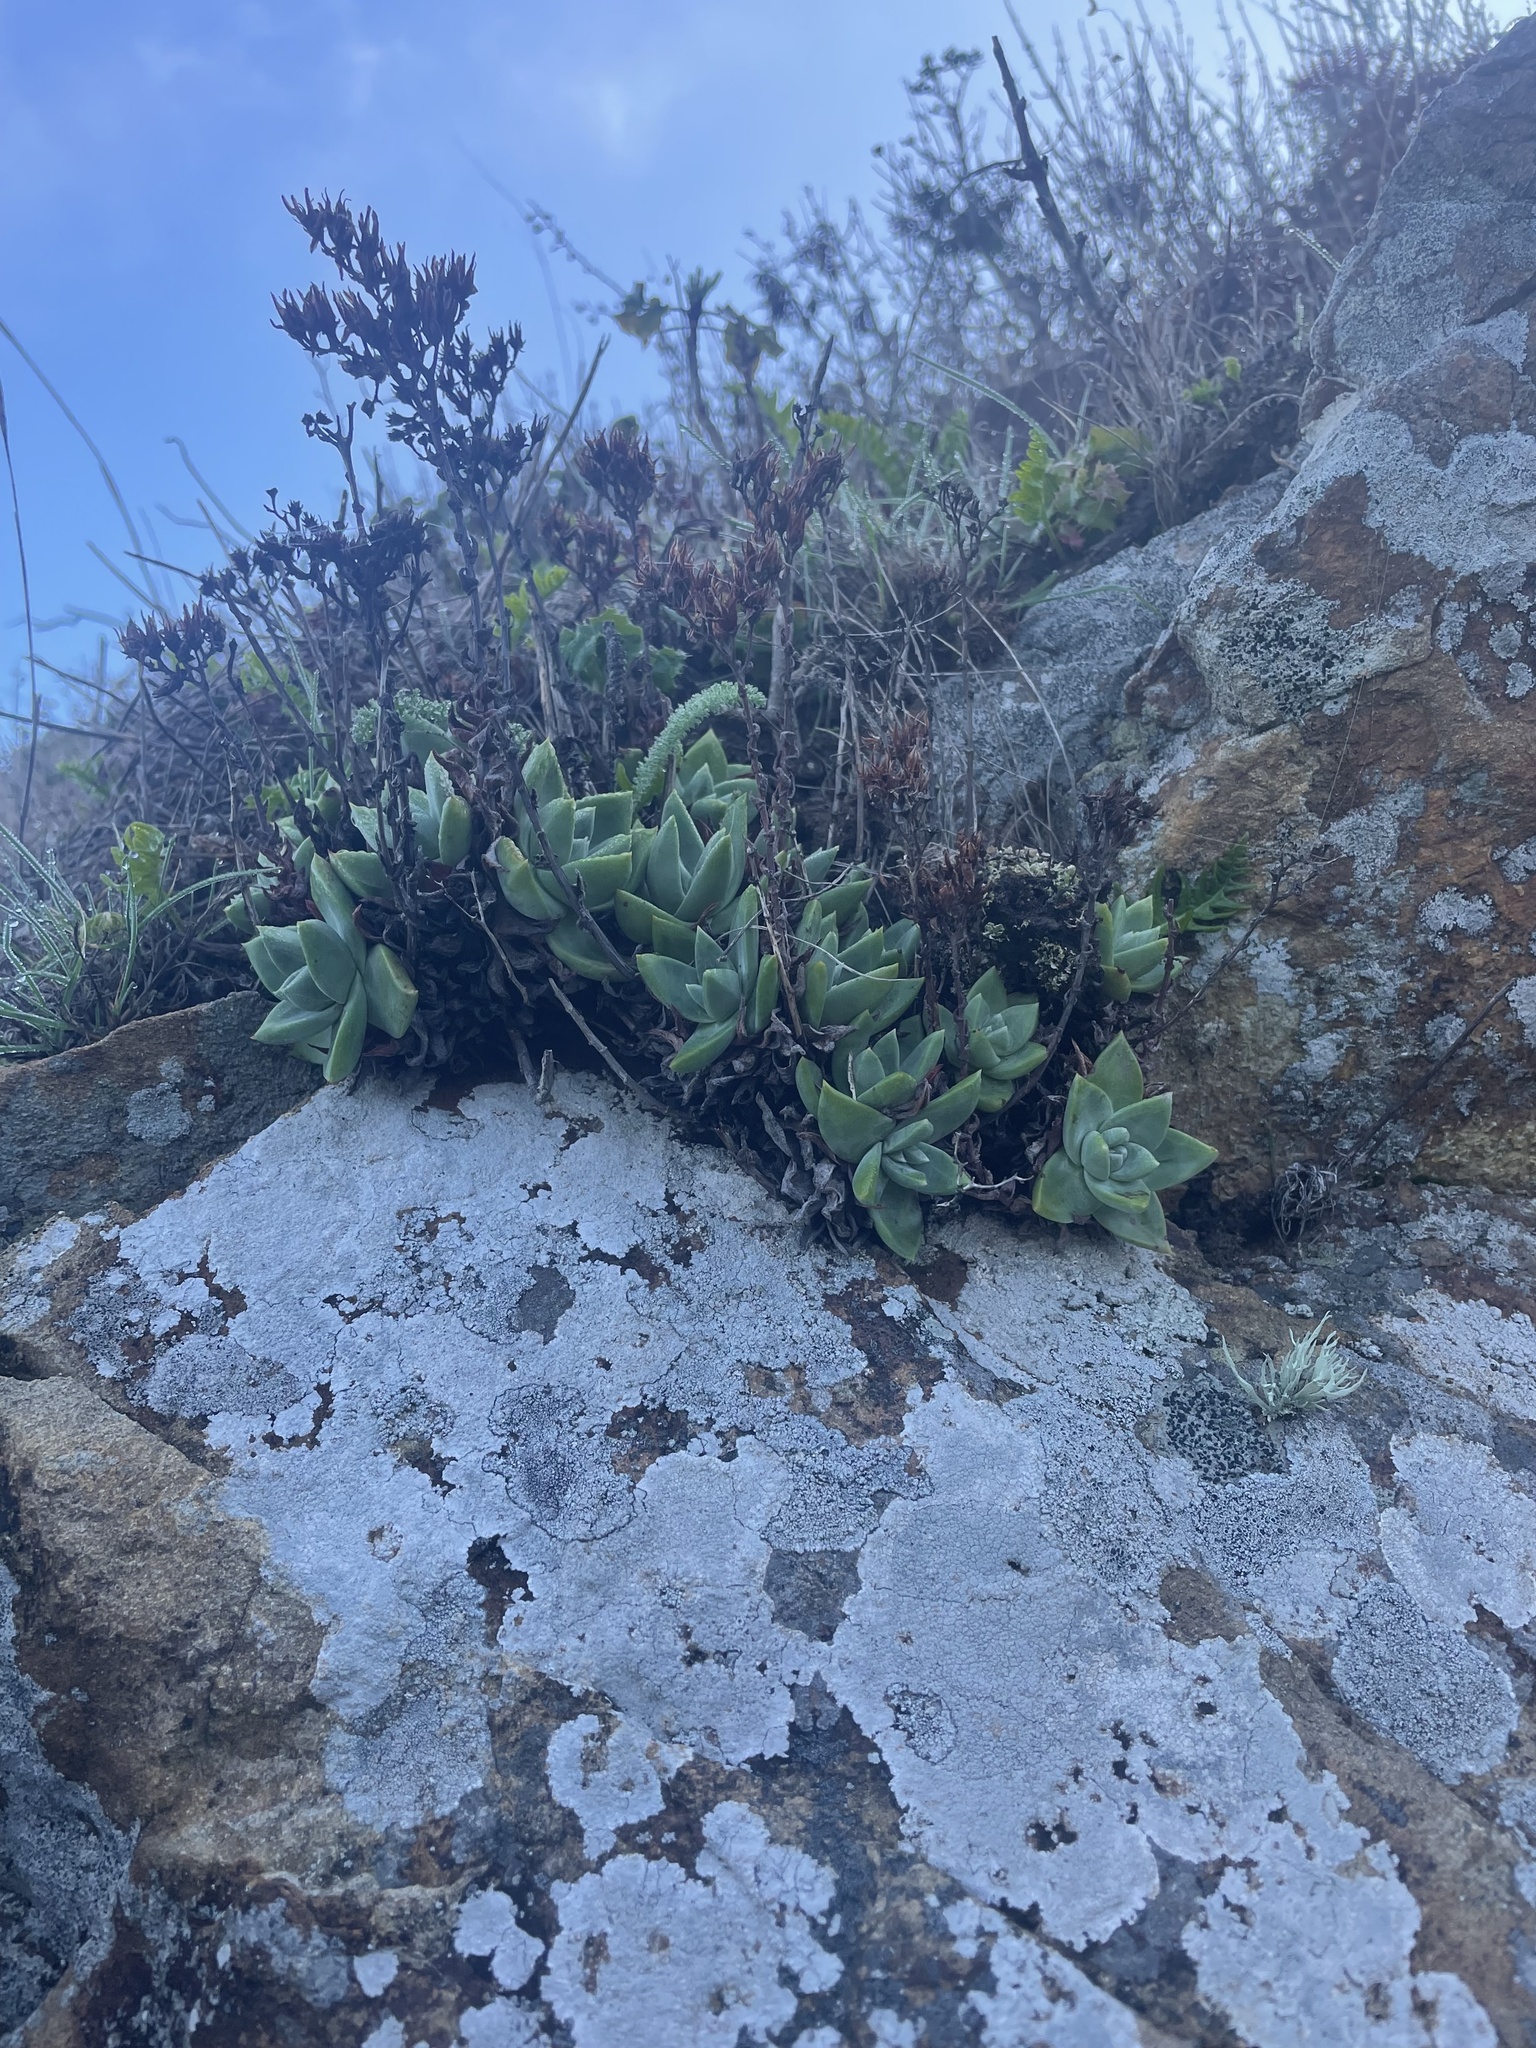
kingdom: Plantae
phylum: Tracheophyta
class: Magnoliopsida
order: Saxifragales
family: Crassulaceae
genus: Dudleya
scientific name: Dudleya farinosa
